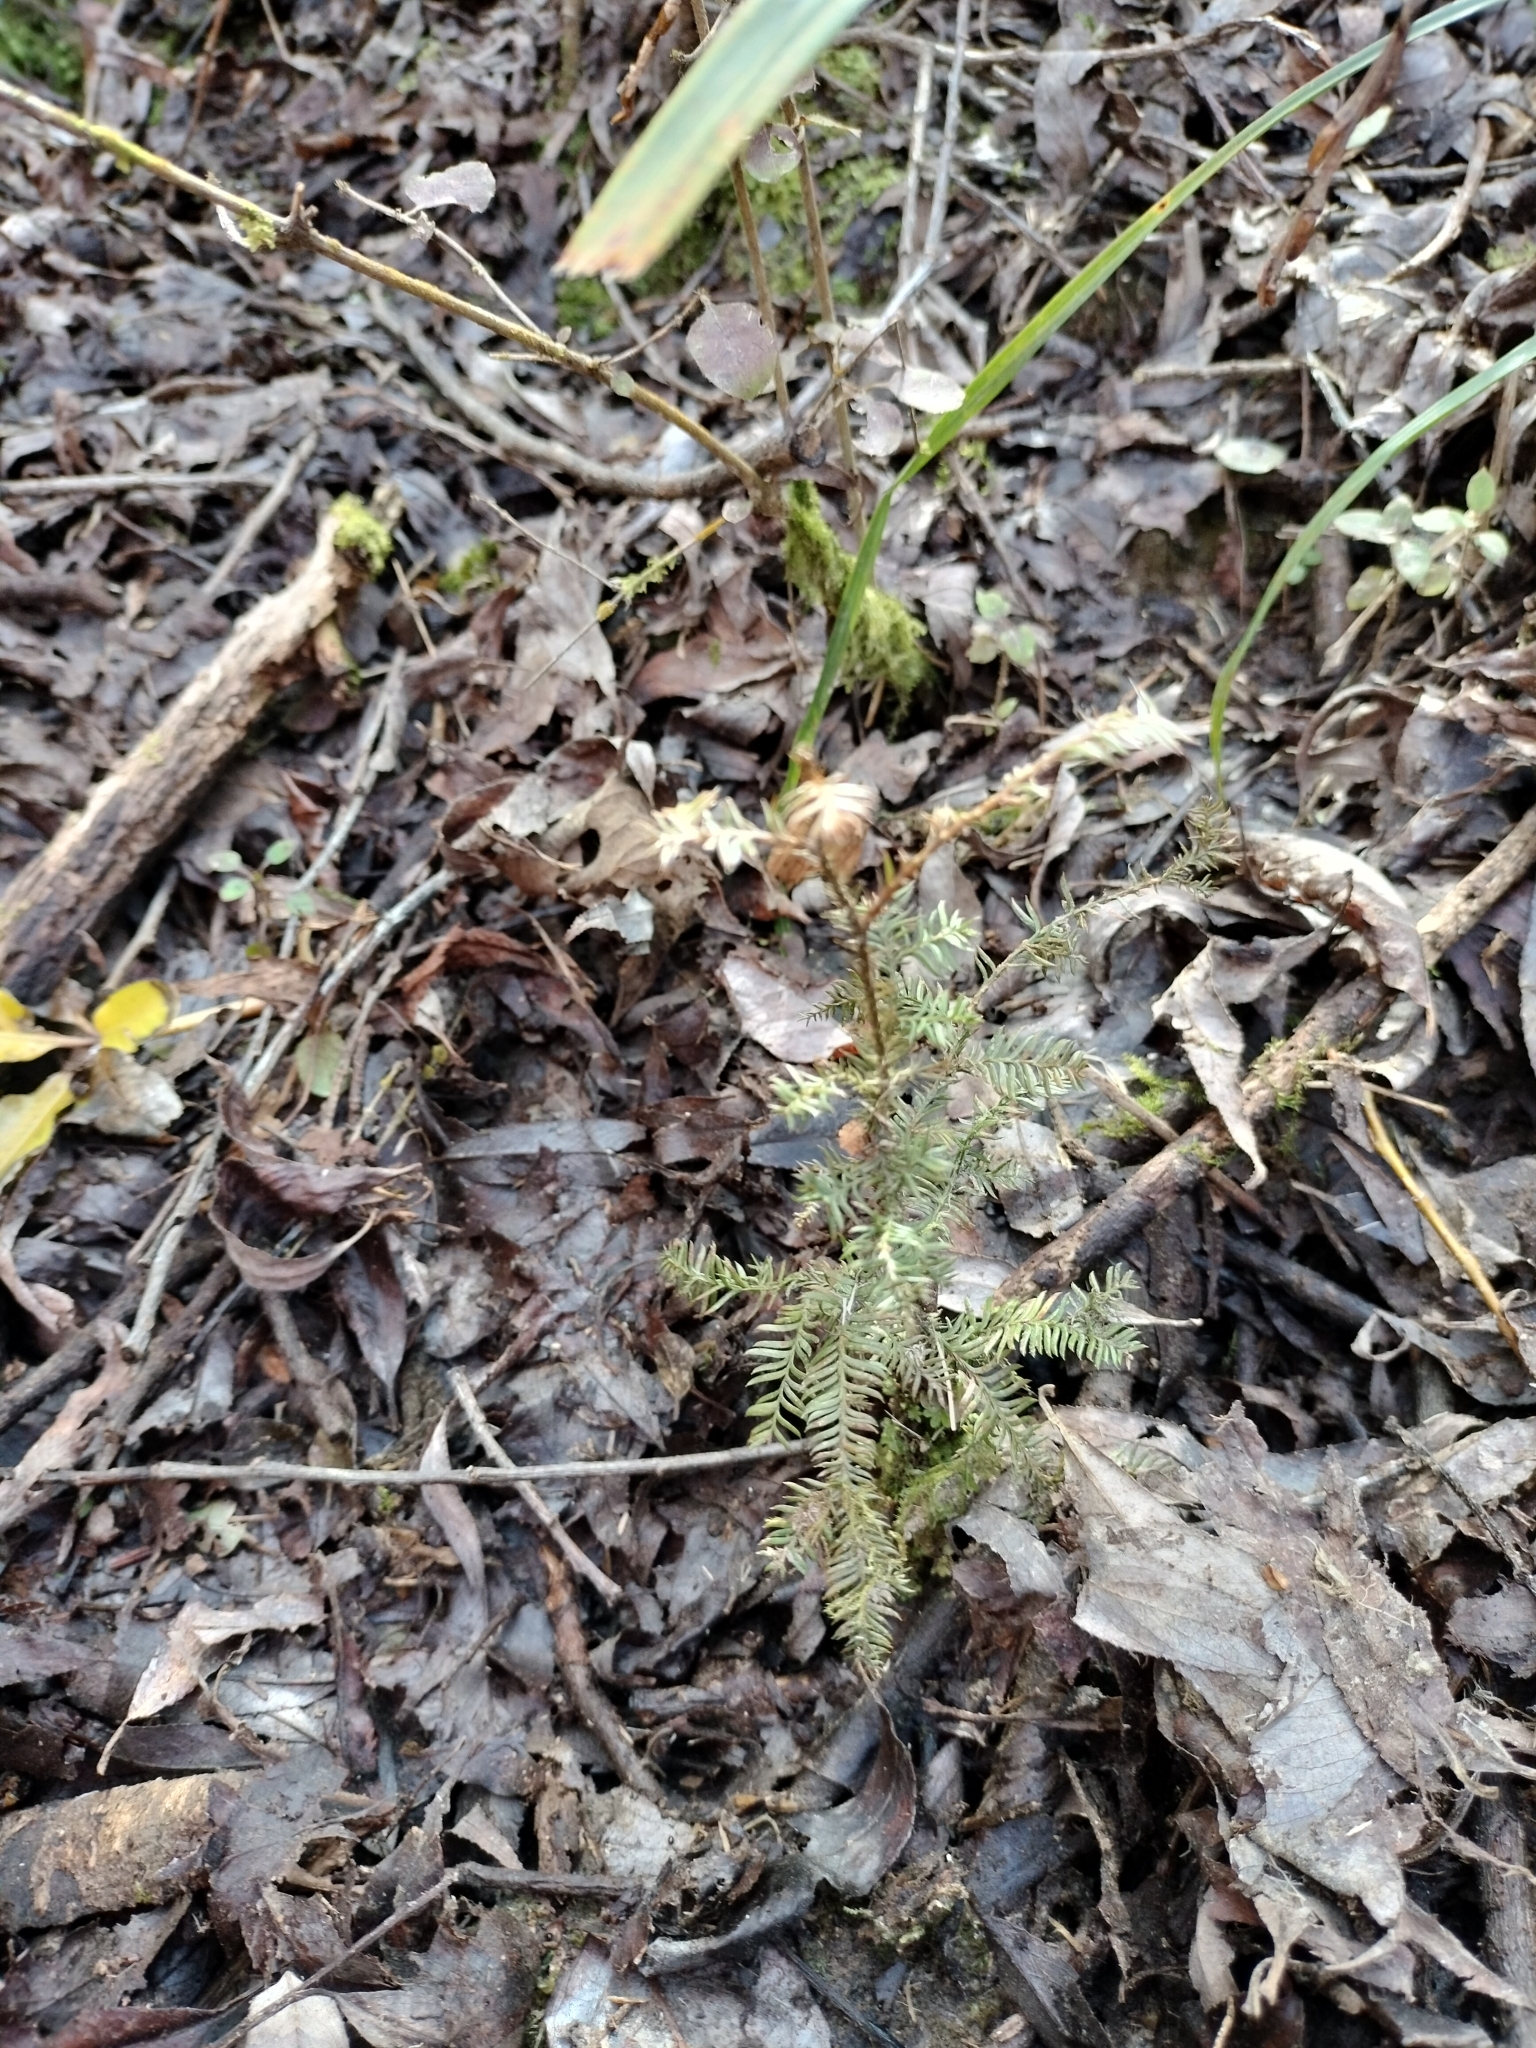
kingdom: Plantae
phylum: Tracheophyta
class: Pinopsida
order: Pinales
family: Podocarpaceae
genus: Dacrycarpus
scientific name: Dacrycarpus dacrydioides
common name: White pine
